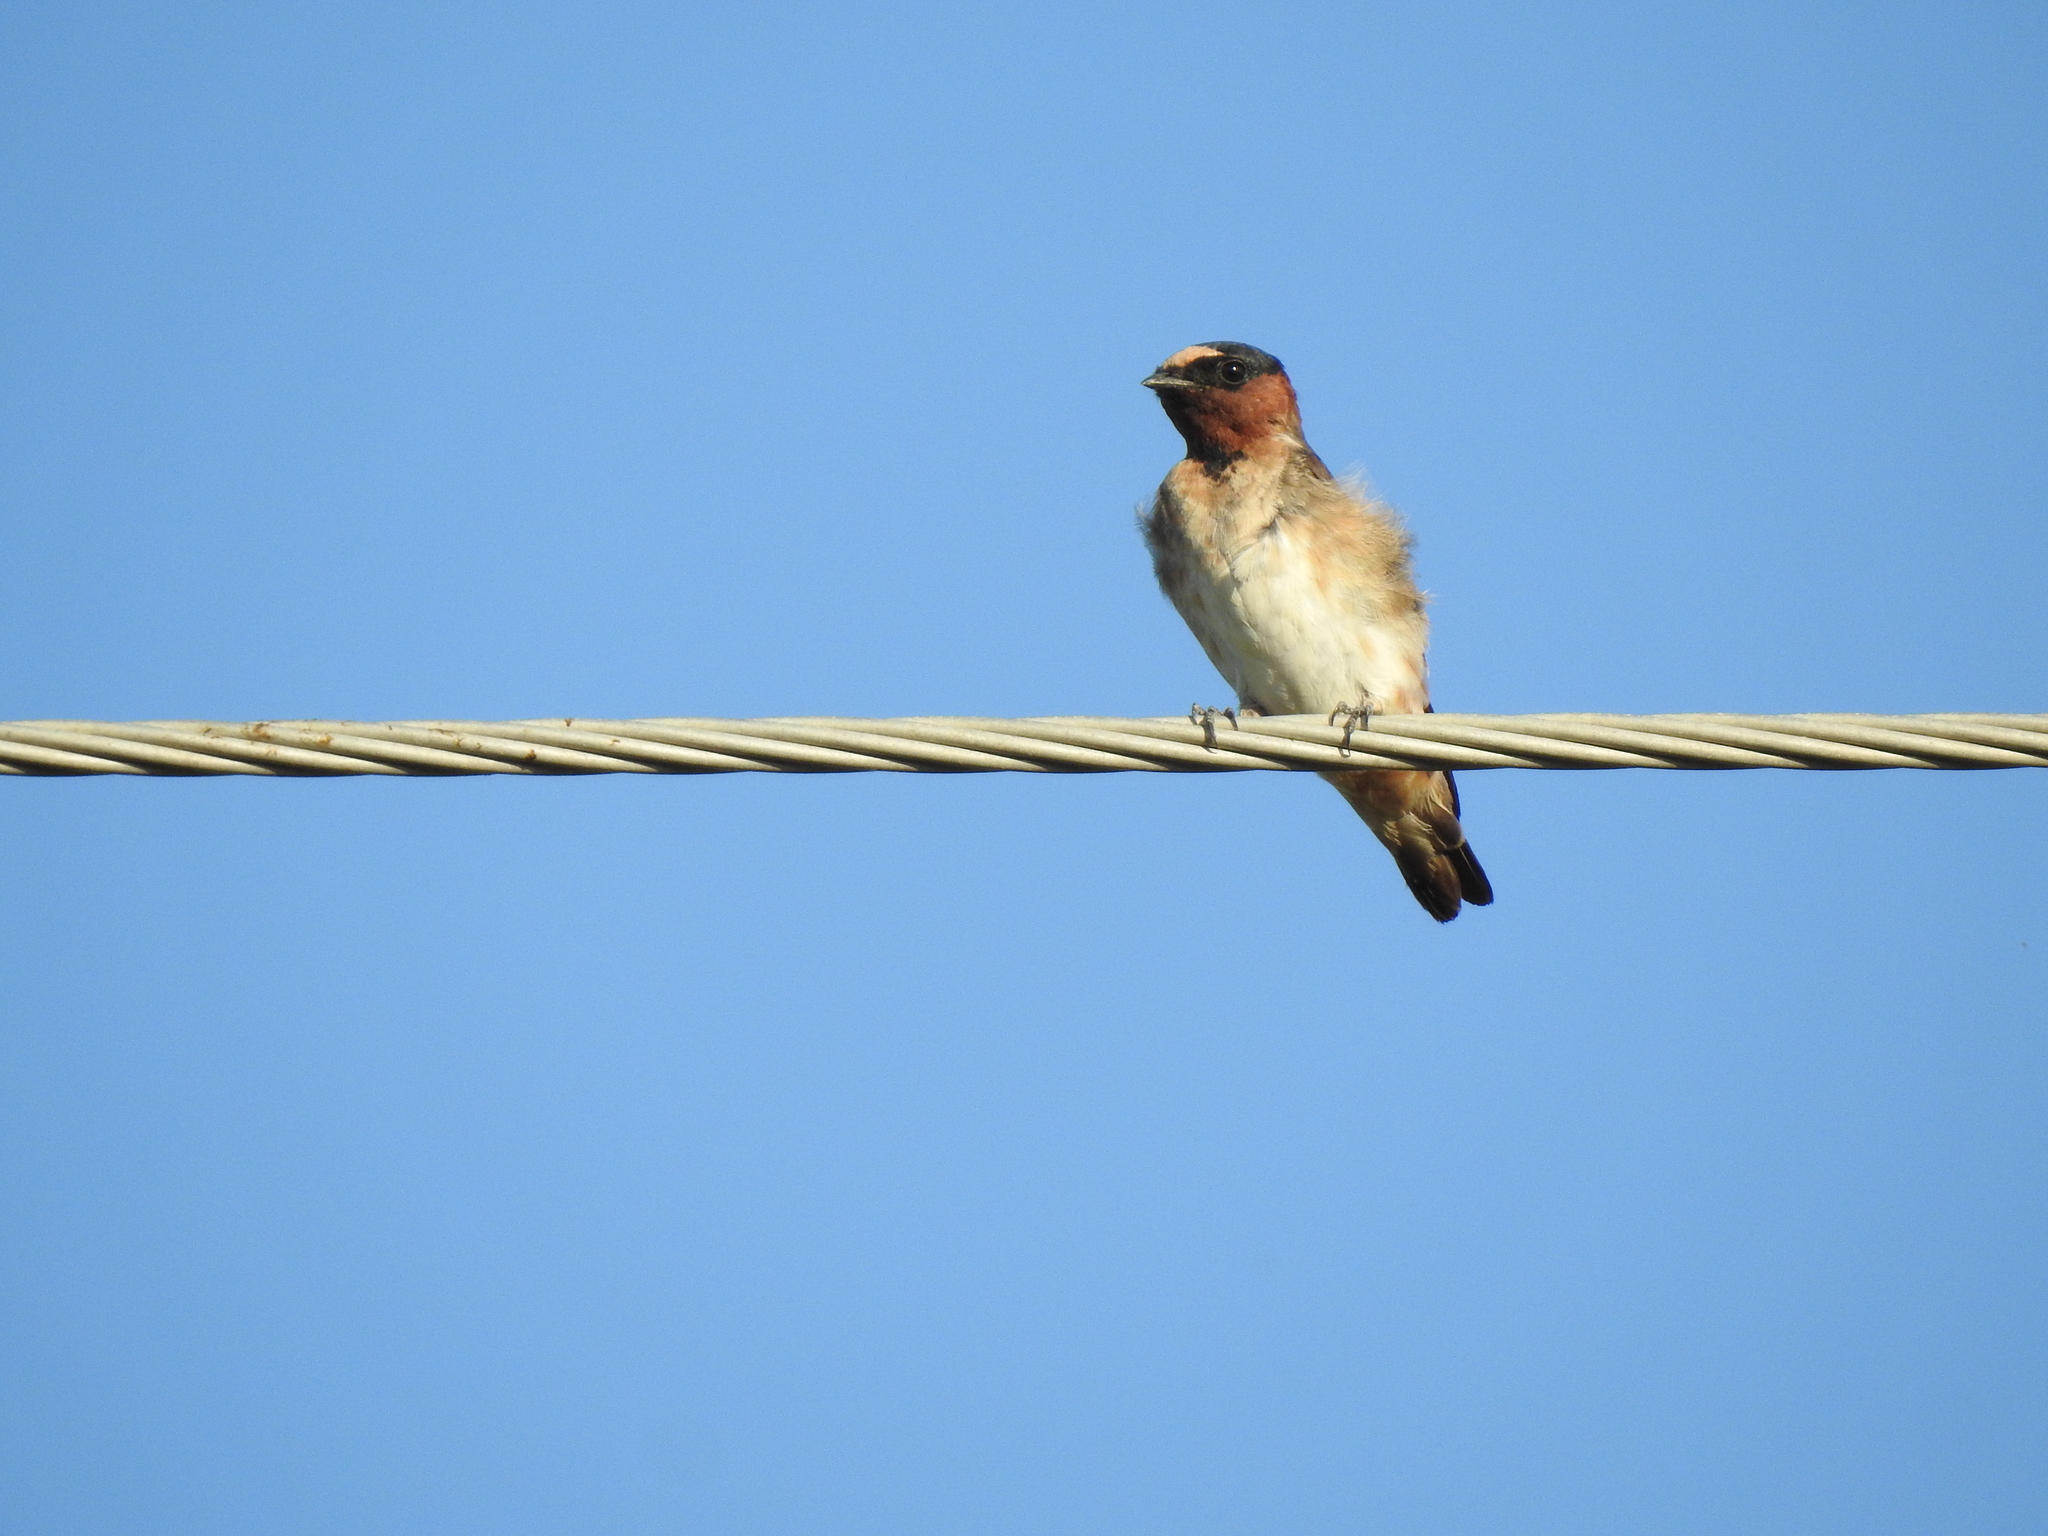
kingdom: Animalia
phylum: Chordata
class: Aves
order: Passeriformes
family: Hirundinidae
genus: Petrochelidon
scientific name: Petrochelidon pyrrhonota
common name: American cliff swallow
